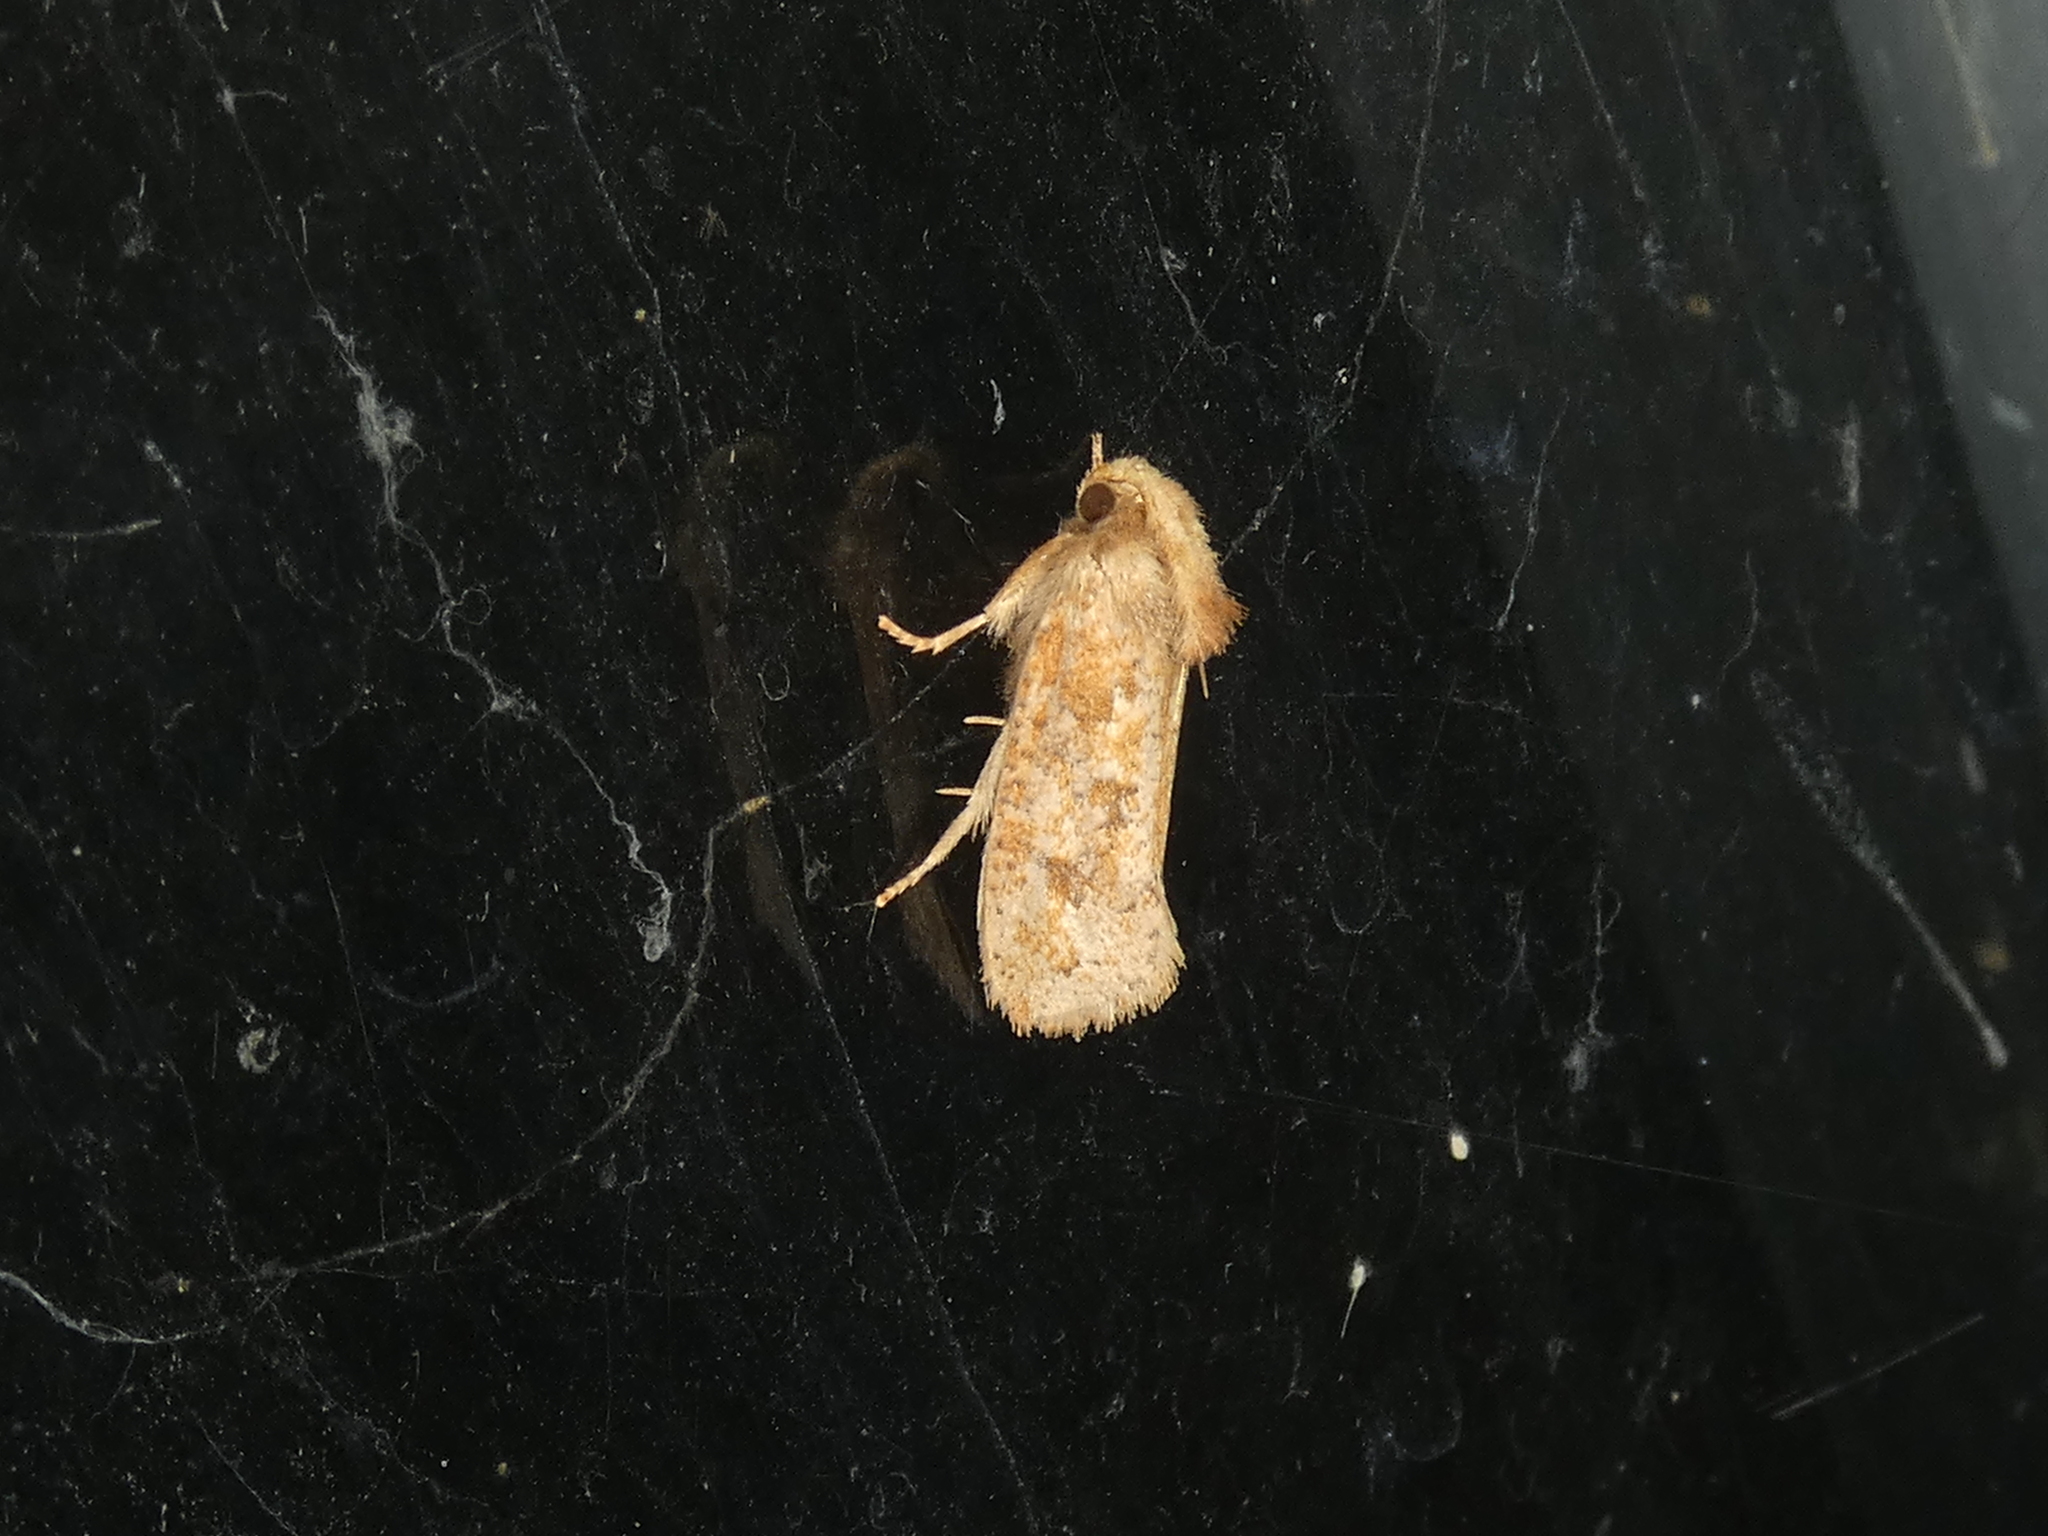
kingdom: Animalia
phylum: Arthropoda
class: Insecta
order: Lepidoptera
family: Tineidae
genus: Acrolophus
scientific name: Acrolophus plumifrontella
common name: Eastern grass tubeworm moth
